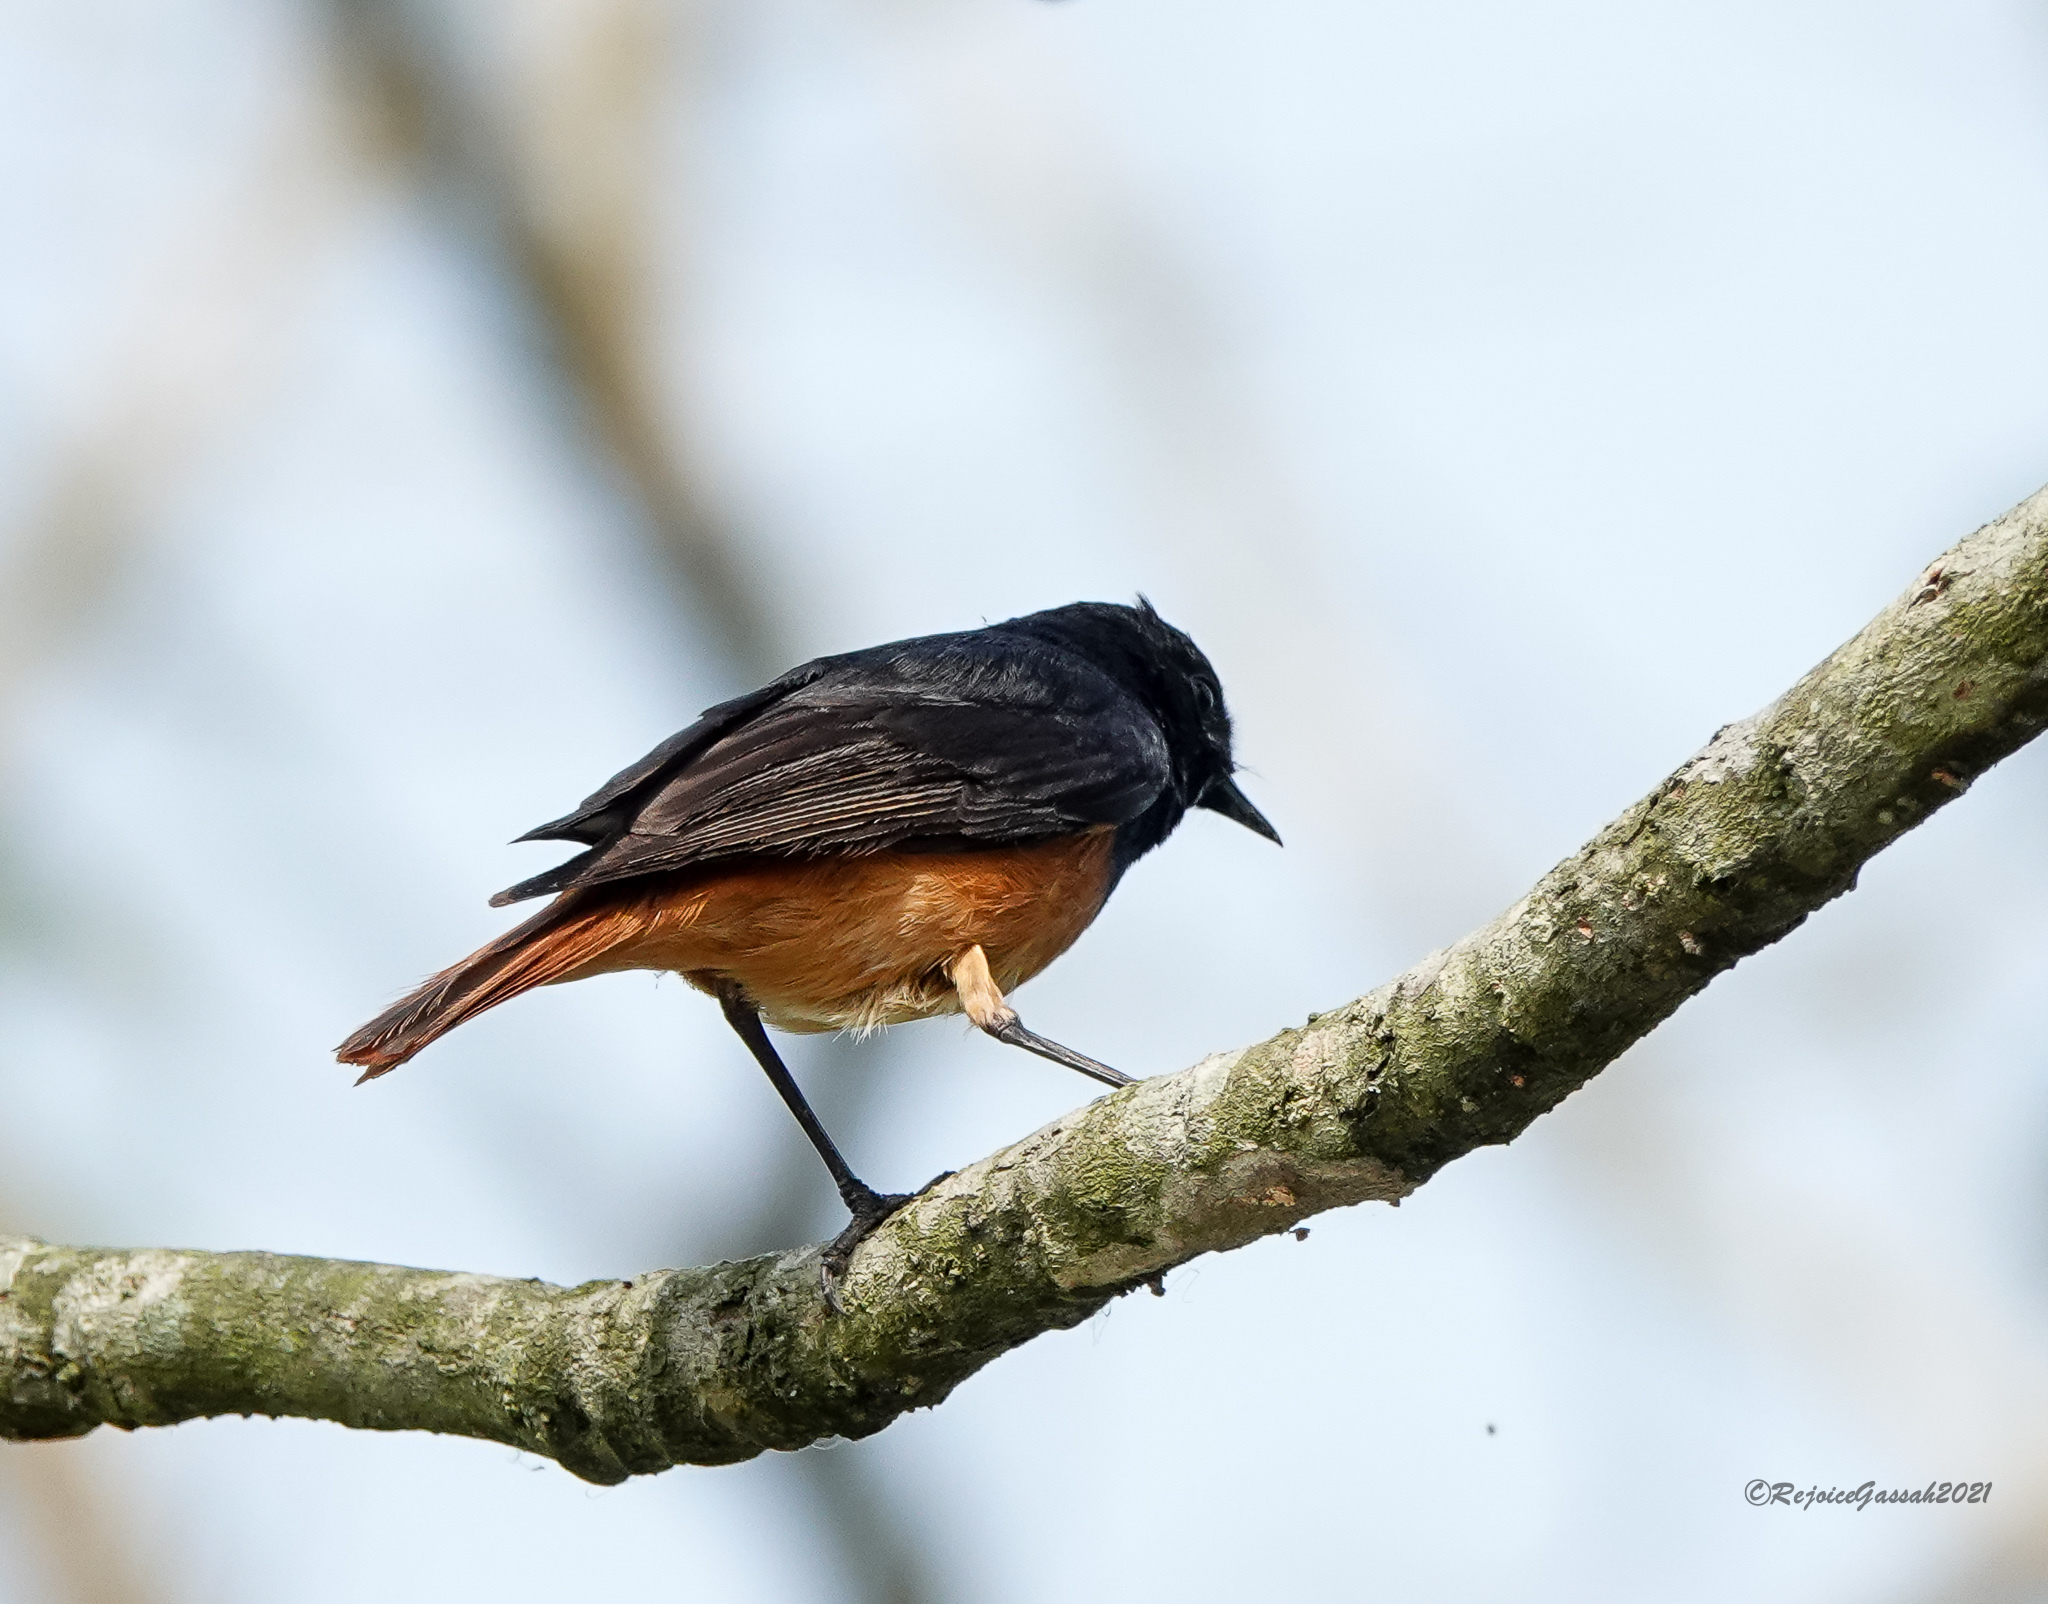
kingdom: Animalia
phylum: Chordata
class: Aves
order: Passeriformes
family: Muscicapidae
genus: Phoenicurus
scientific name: Phoenicurus ochruros
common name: Black redstart
